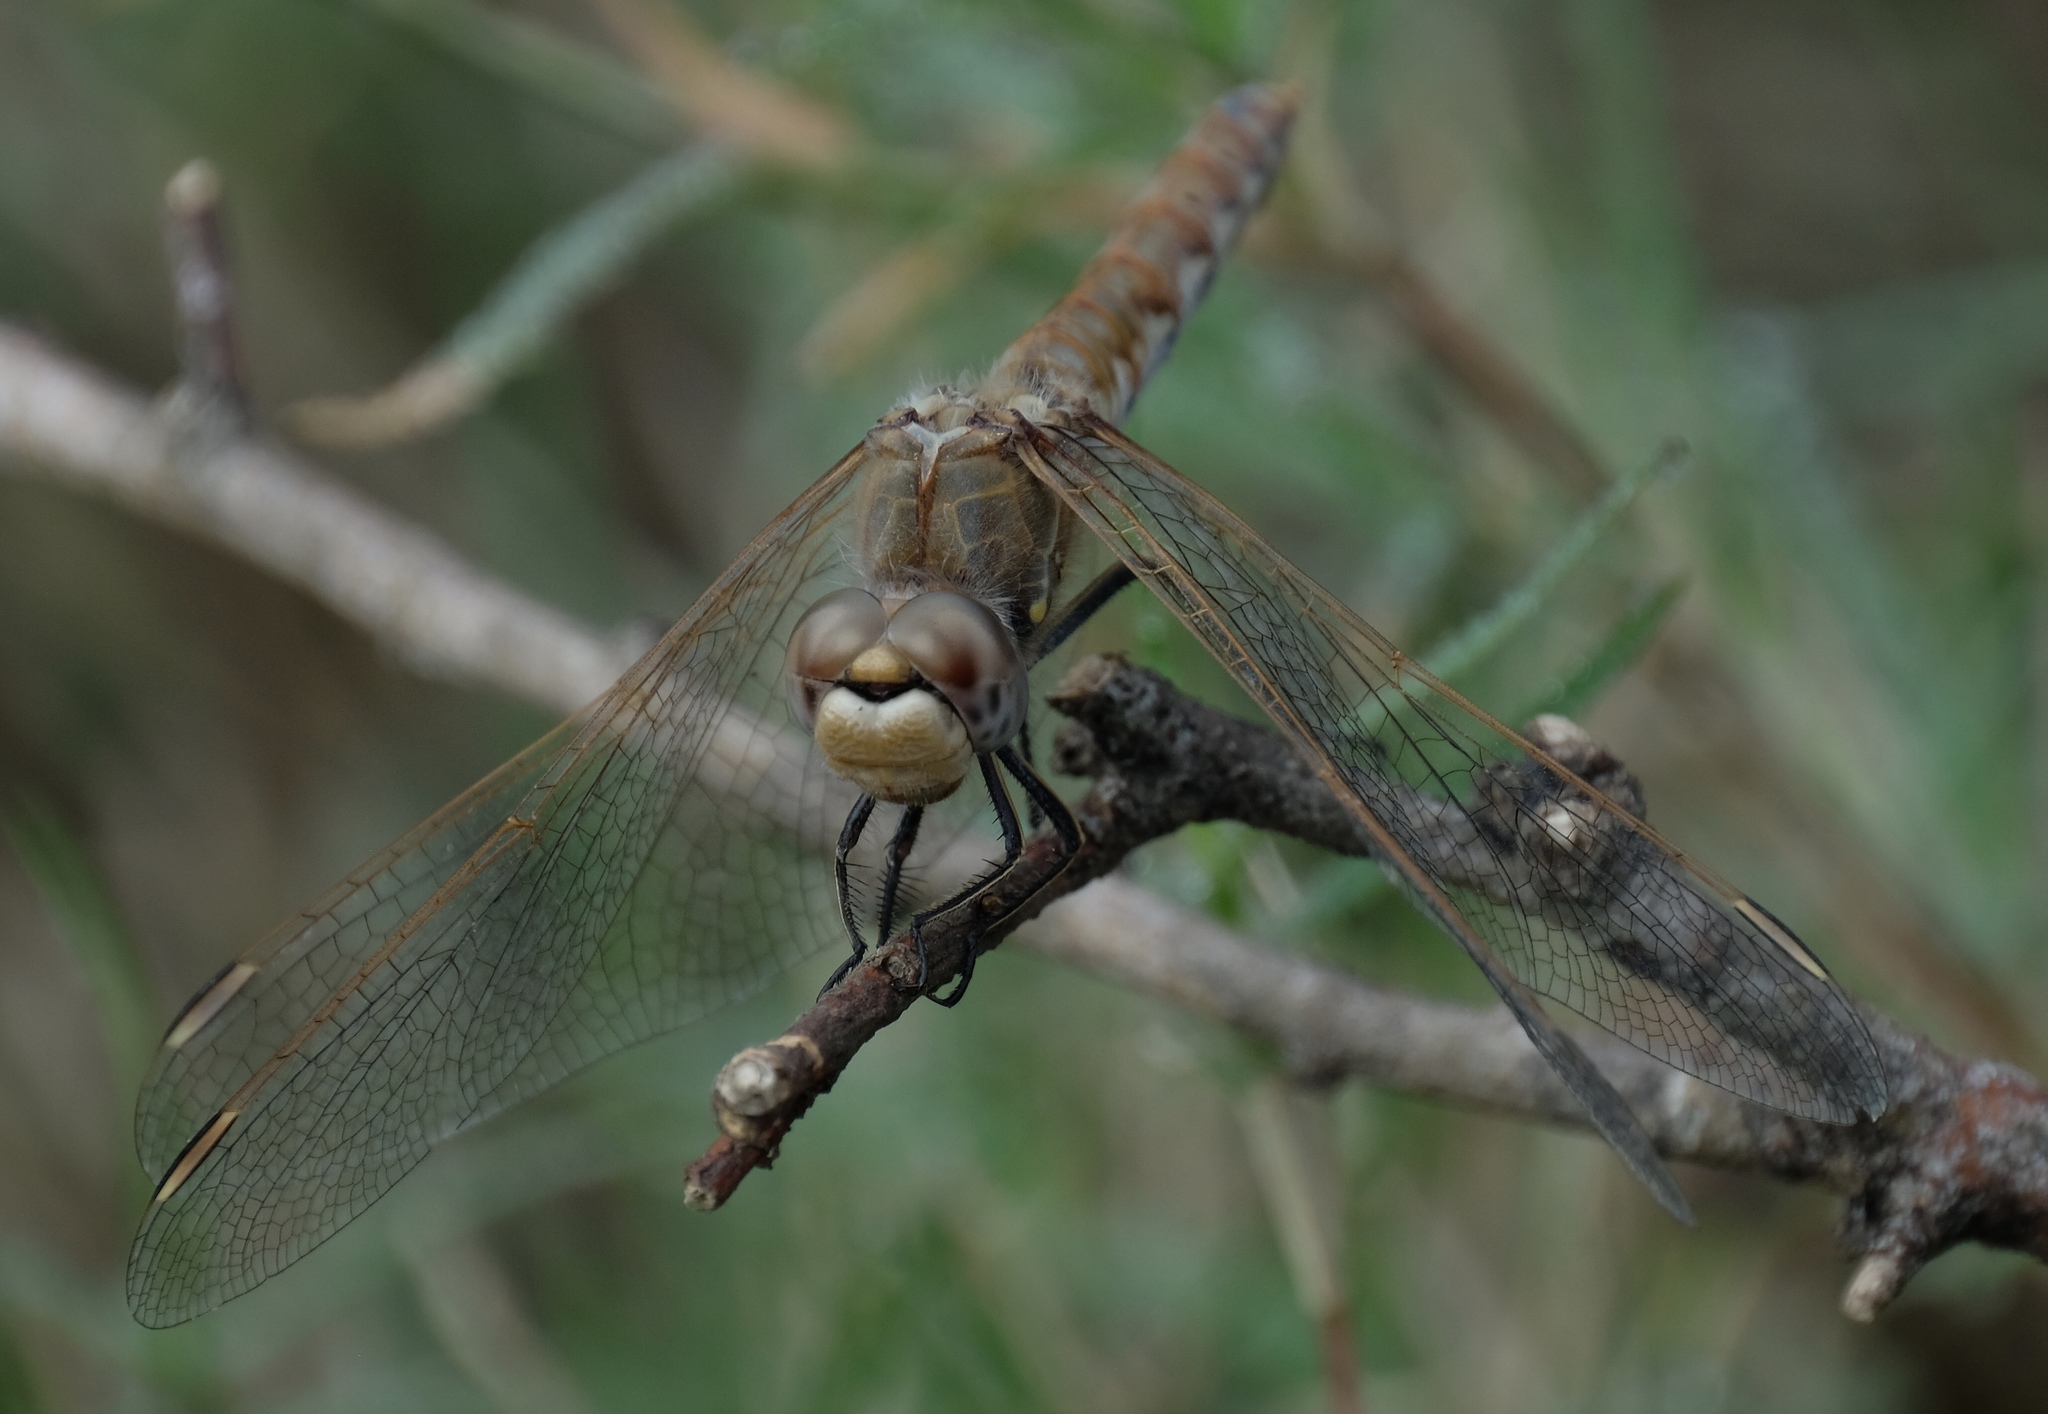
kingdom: Animalia
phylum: Arthropoda
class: Insecta
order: Odonata
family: Libellulidae
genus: Sympetrum
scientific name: Sympetrum corruptum
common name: Variegated meadowhawk
